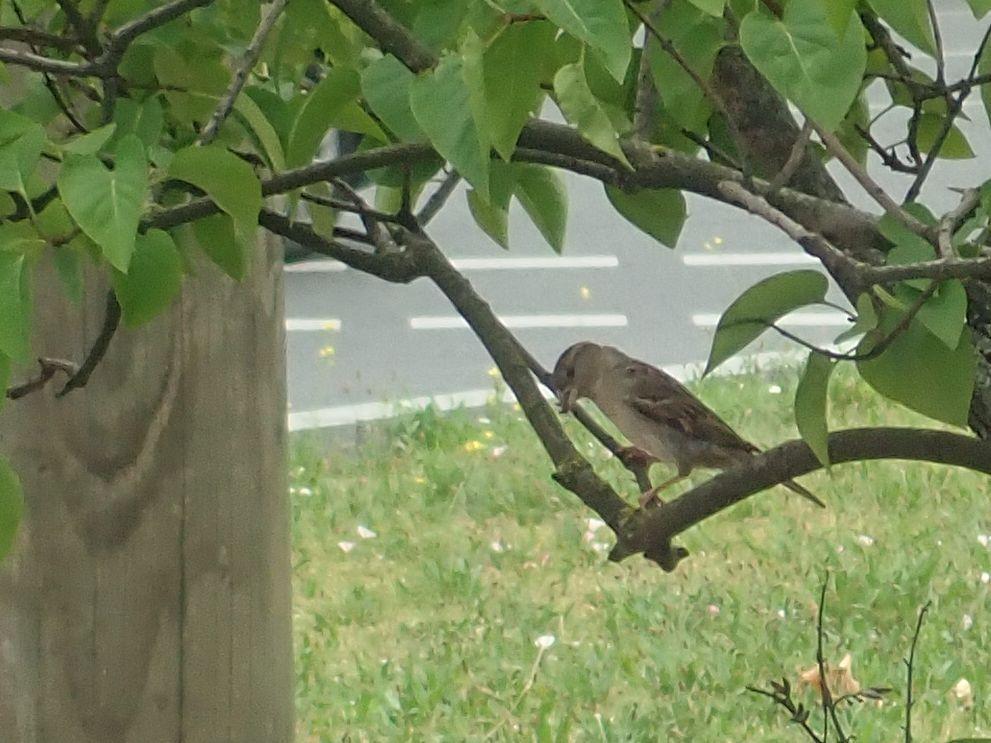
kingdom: Animalia
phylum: Chordata
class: Aves
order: Passeriformes
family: Passeridae
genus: Passer
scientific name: Passer domesticus
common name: House sparrow
